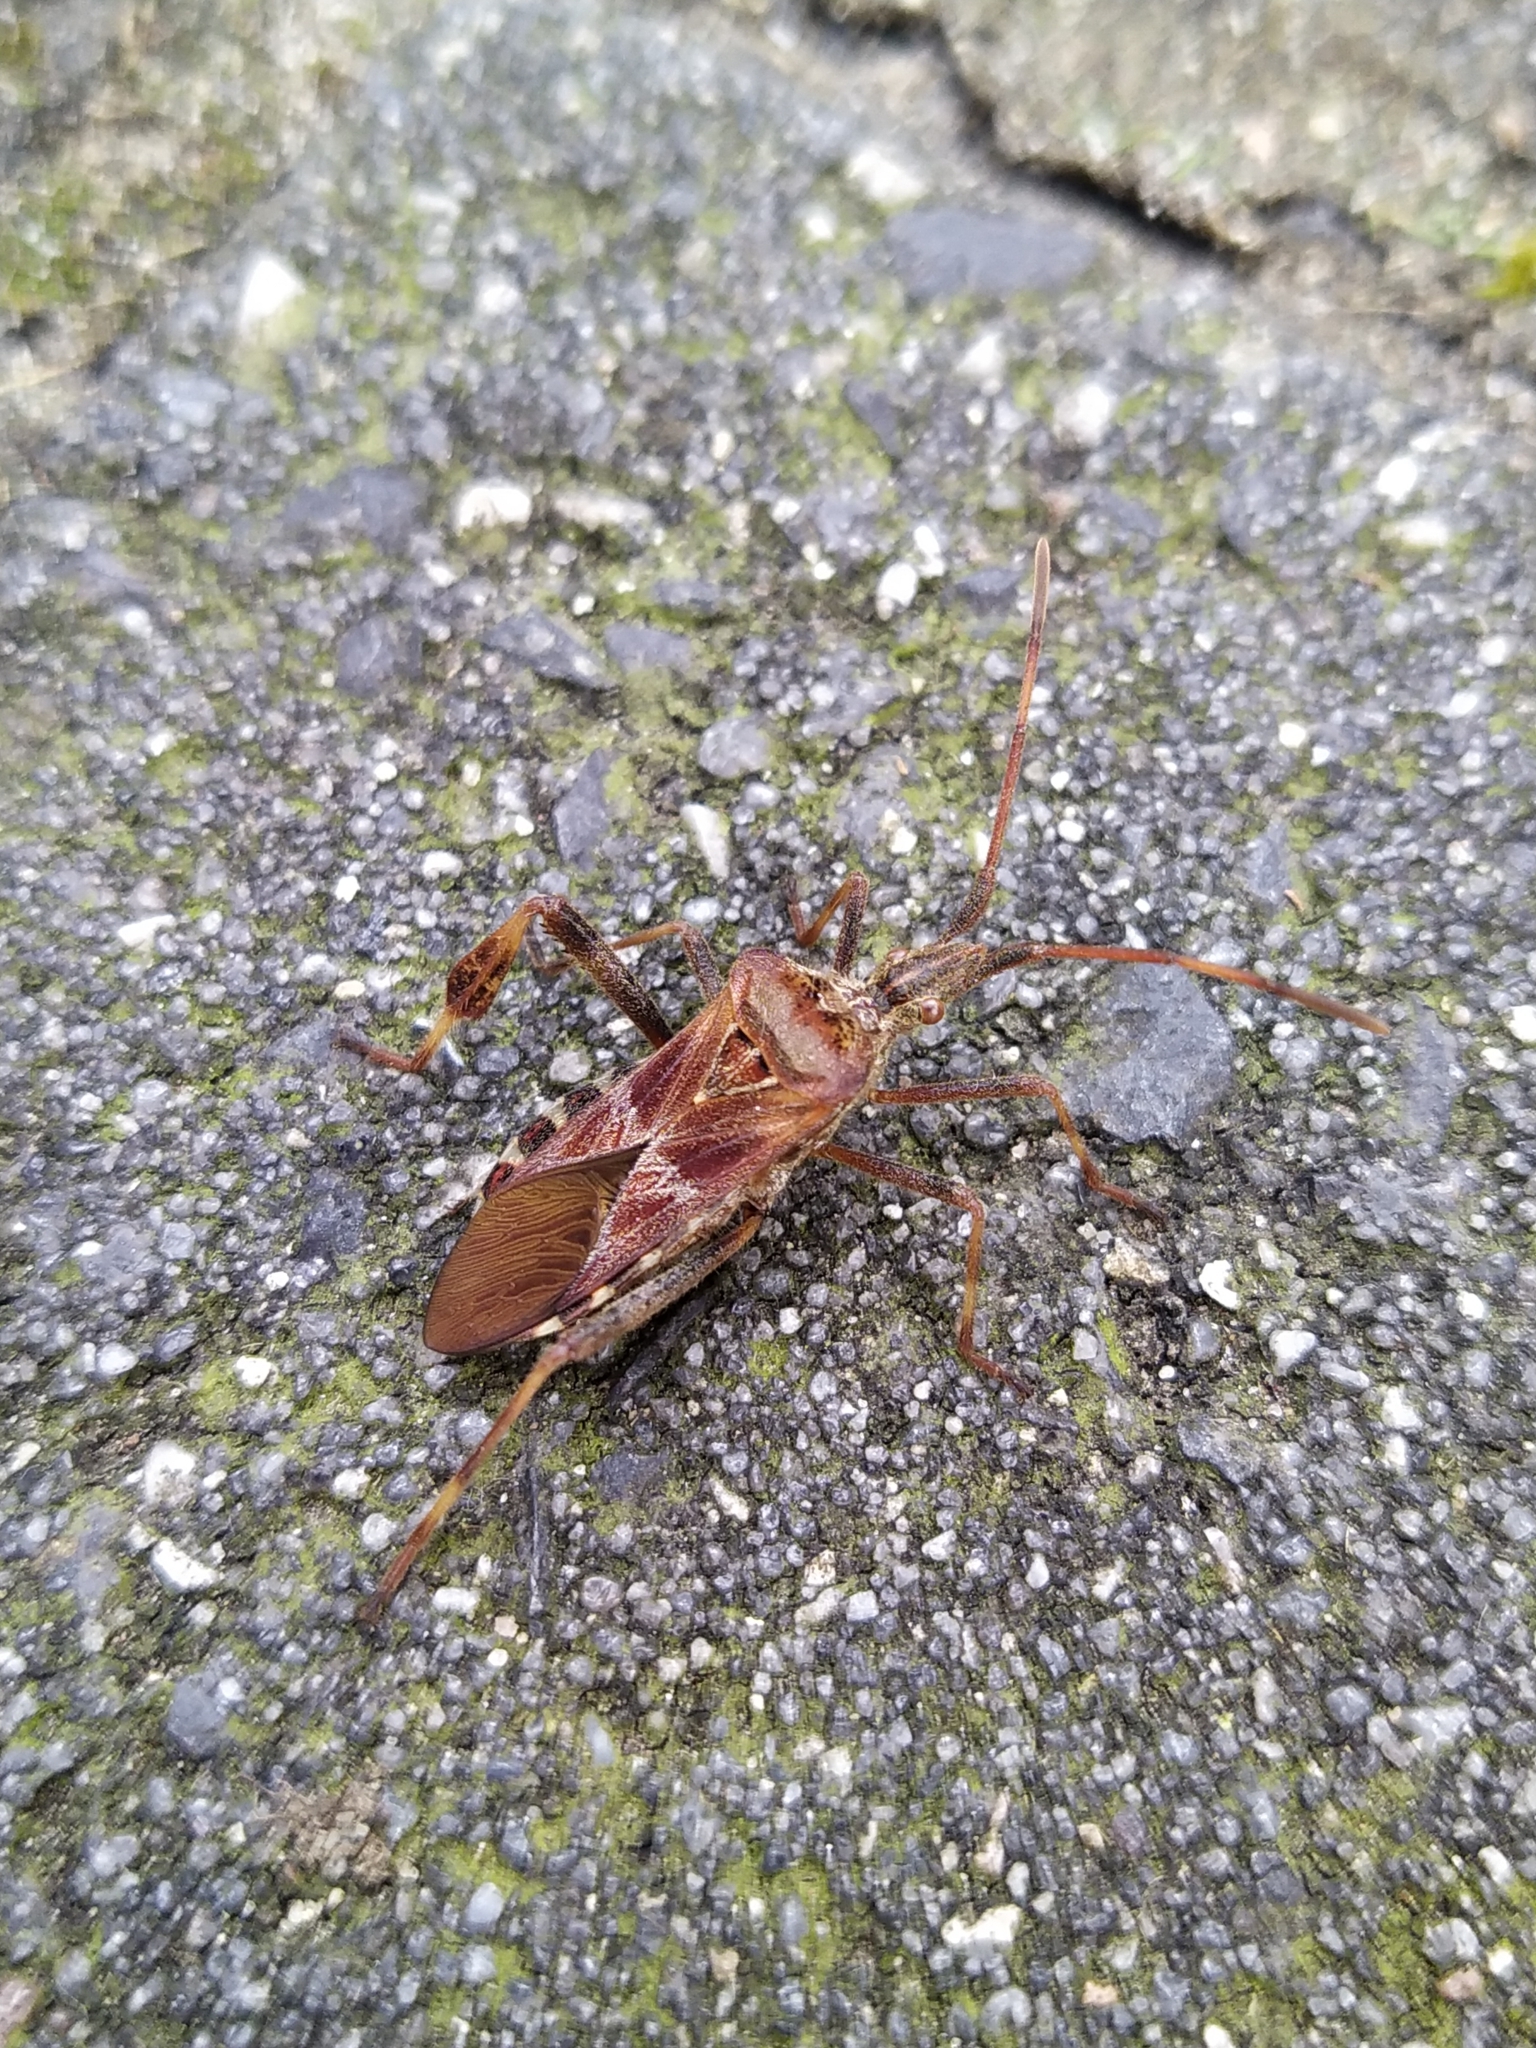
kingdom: Animalia
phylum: Arthropoda
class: Insecta
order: Hemiptera
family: Coreidae
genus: Leptoglossus
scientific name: Leptoglossus occidentalis
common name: Western conifer-seed bug
